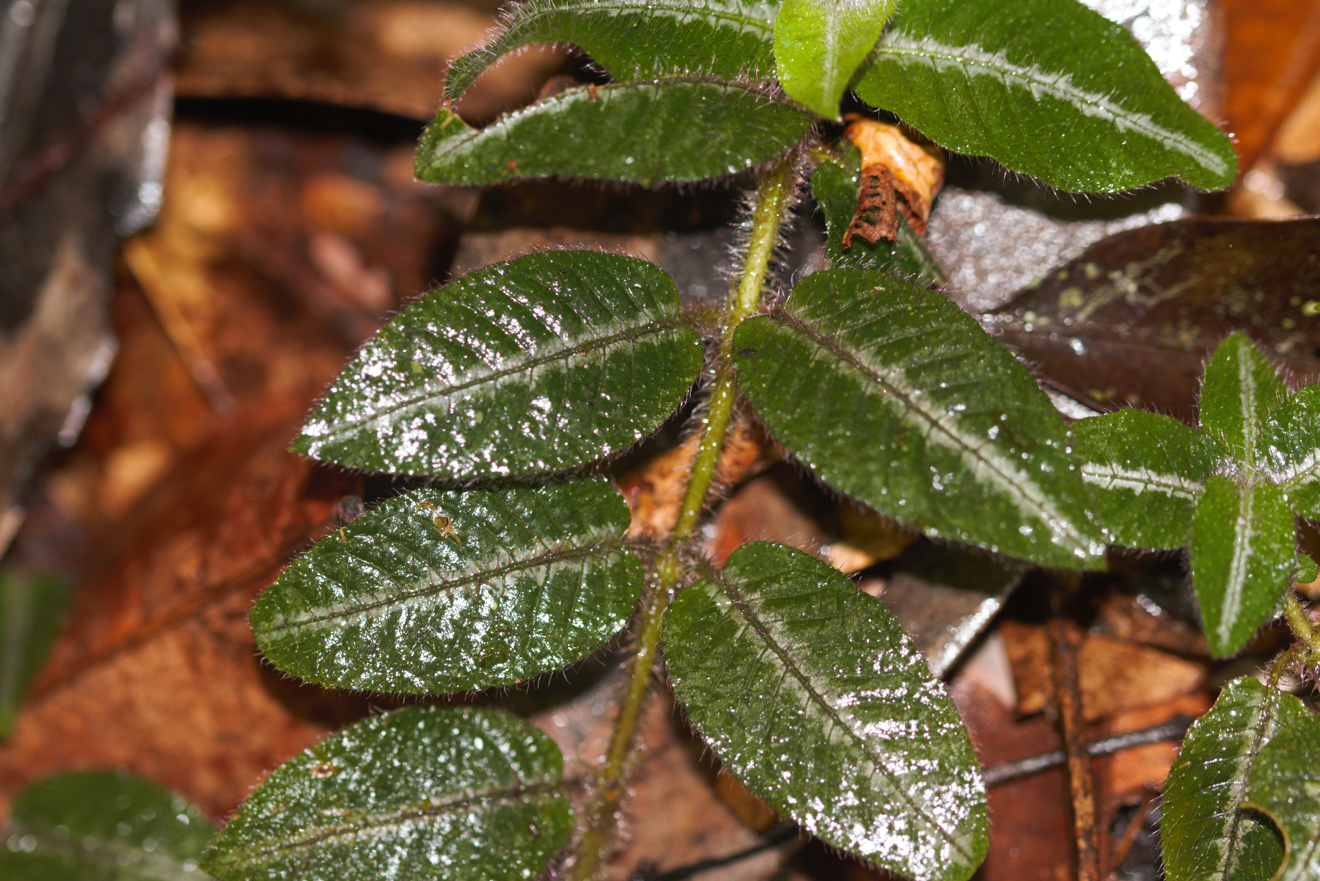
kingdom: Plantae
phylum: Tracheophyta
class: Magnoliopsida
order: Gentianales
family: Rubiaceae
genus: Palicourea
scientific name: Palicourea debilis
